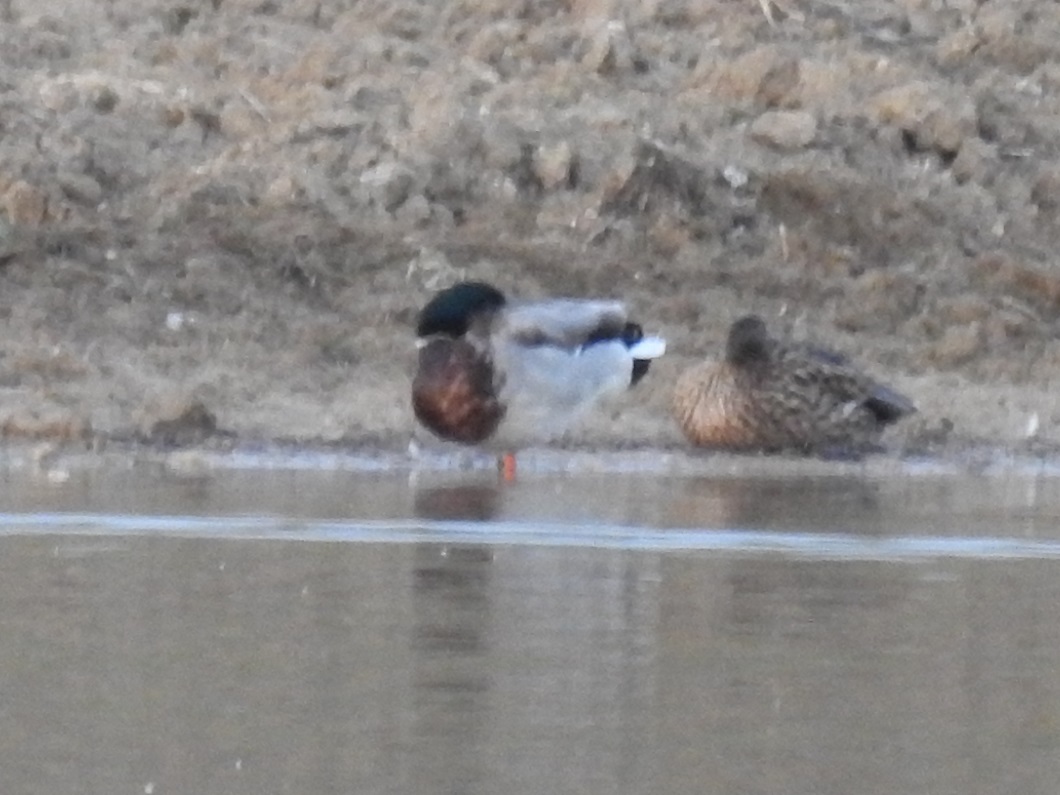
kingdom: Animalia
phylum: Chordata
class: Aves
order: Anseriformes
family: Anatidae
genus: Anas
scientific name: Anas platyrhynchos
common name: Mallard
